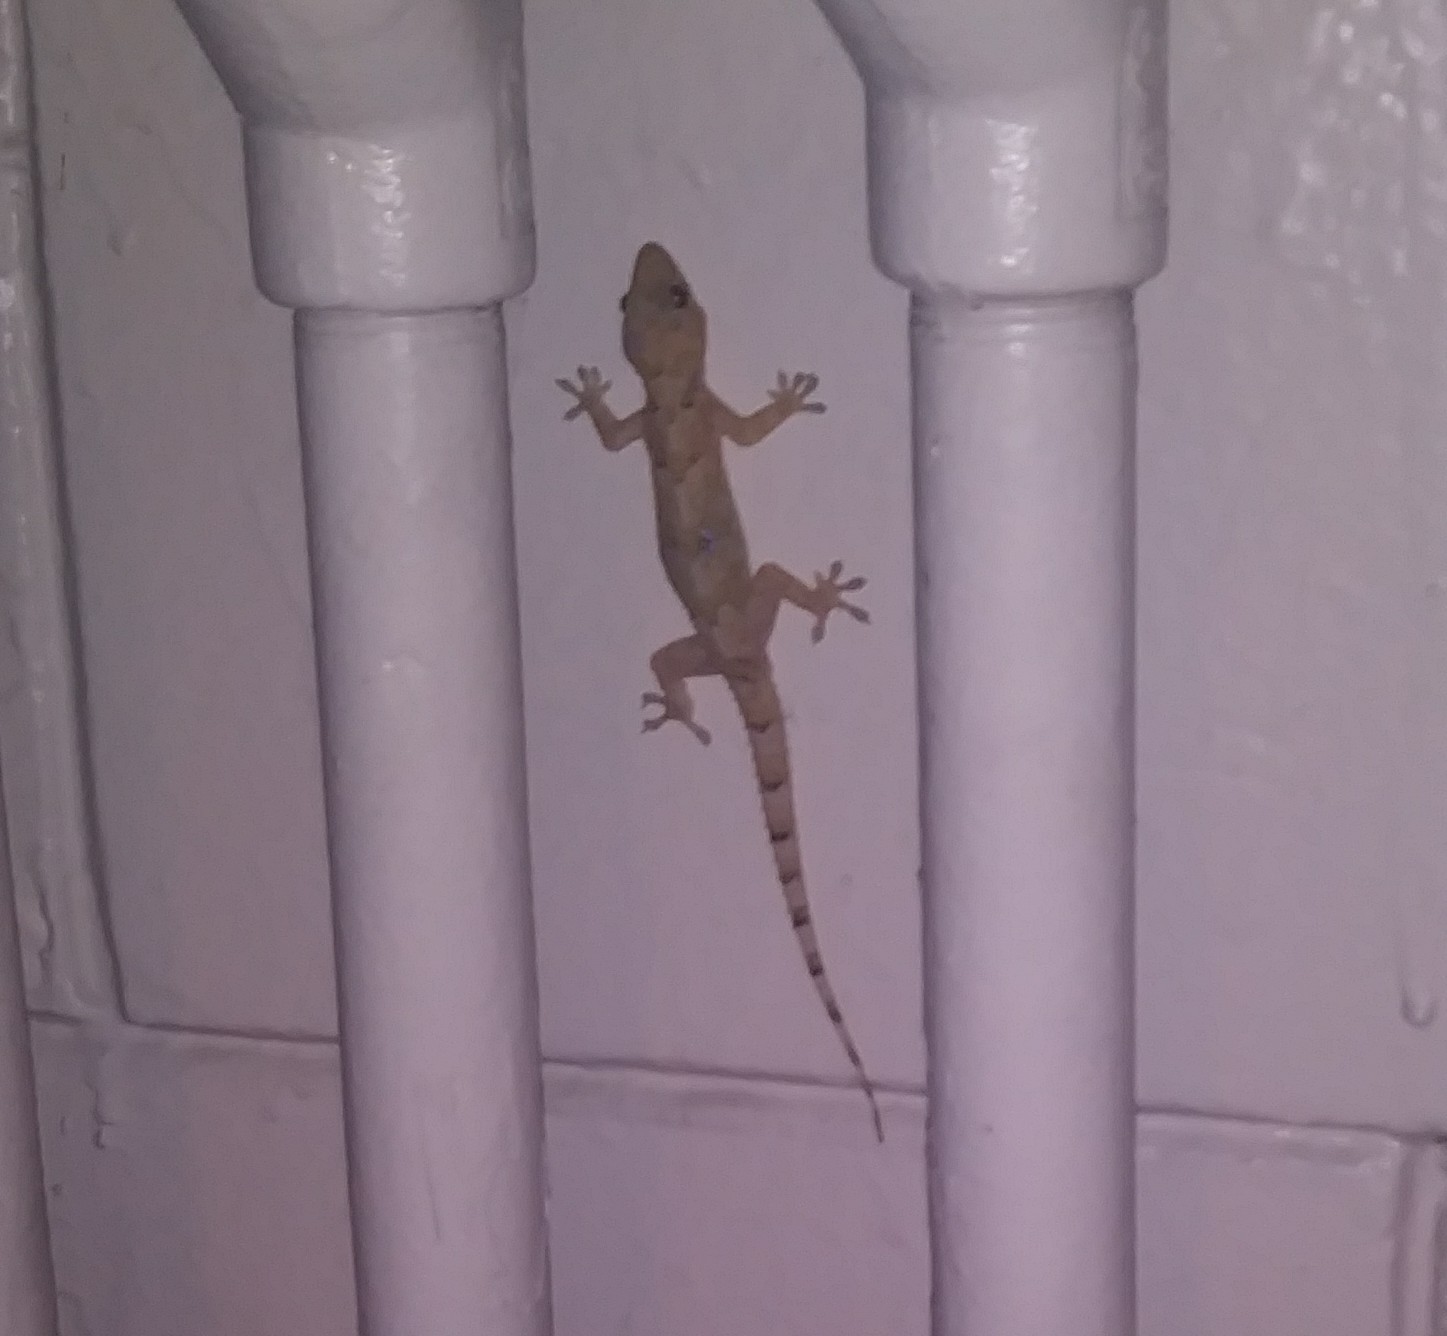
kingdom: Animalia
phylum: Chordata
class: Squamata
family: Gekkonidae
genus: Hemidactylus
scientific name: Hemidactylus mabouia
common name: House gecko
